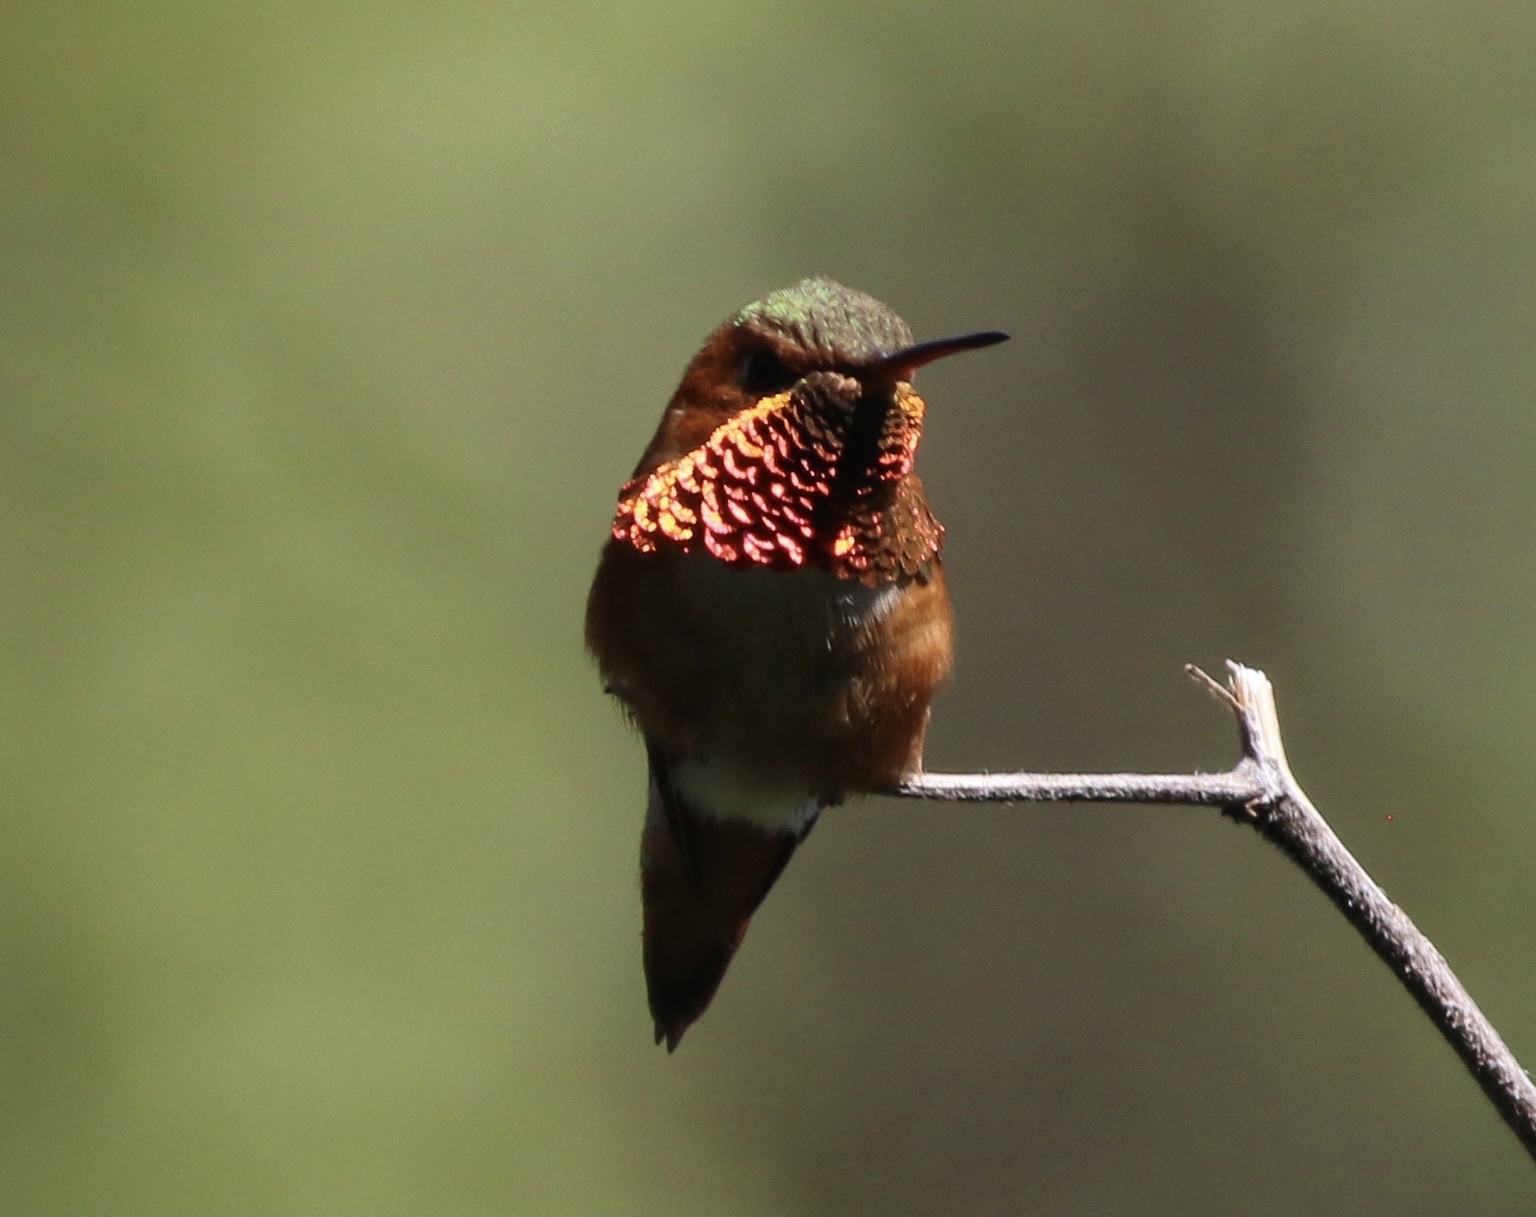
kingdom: Animalia
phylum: Chordata
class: Aves
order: Apodiformes
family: Trochilidae
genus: Selasphorus
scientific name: Selasphorus sasin
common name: Allen's hummingbird
